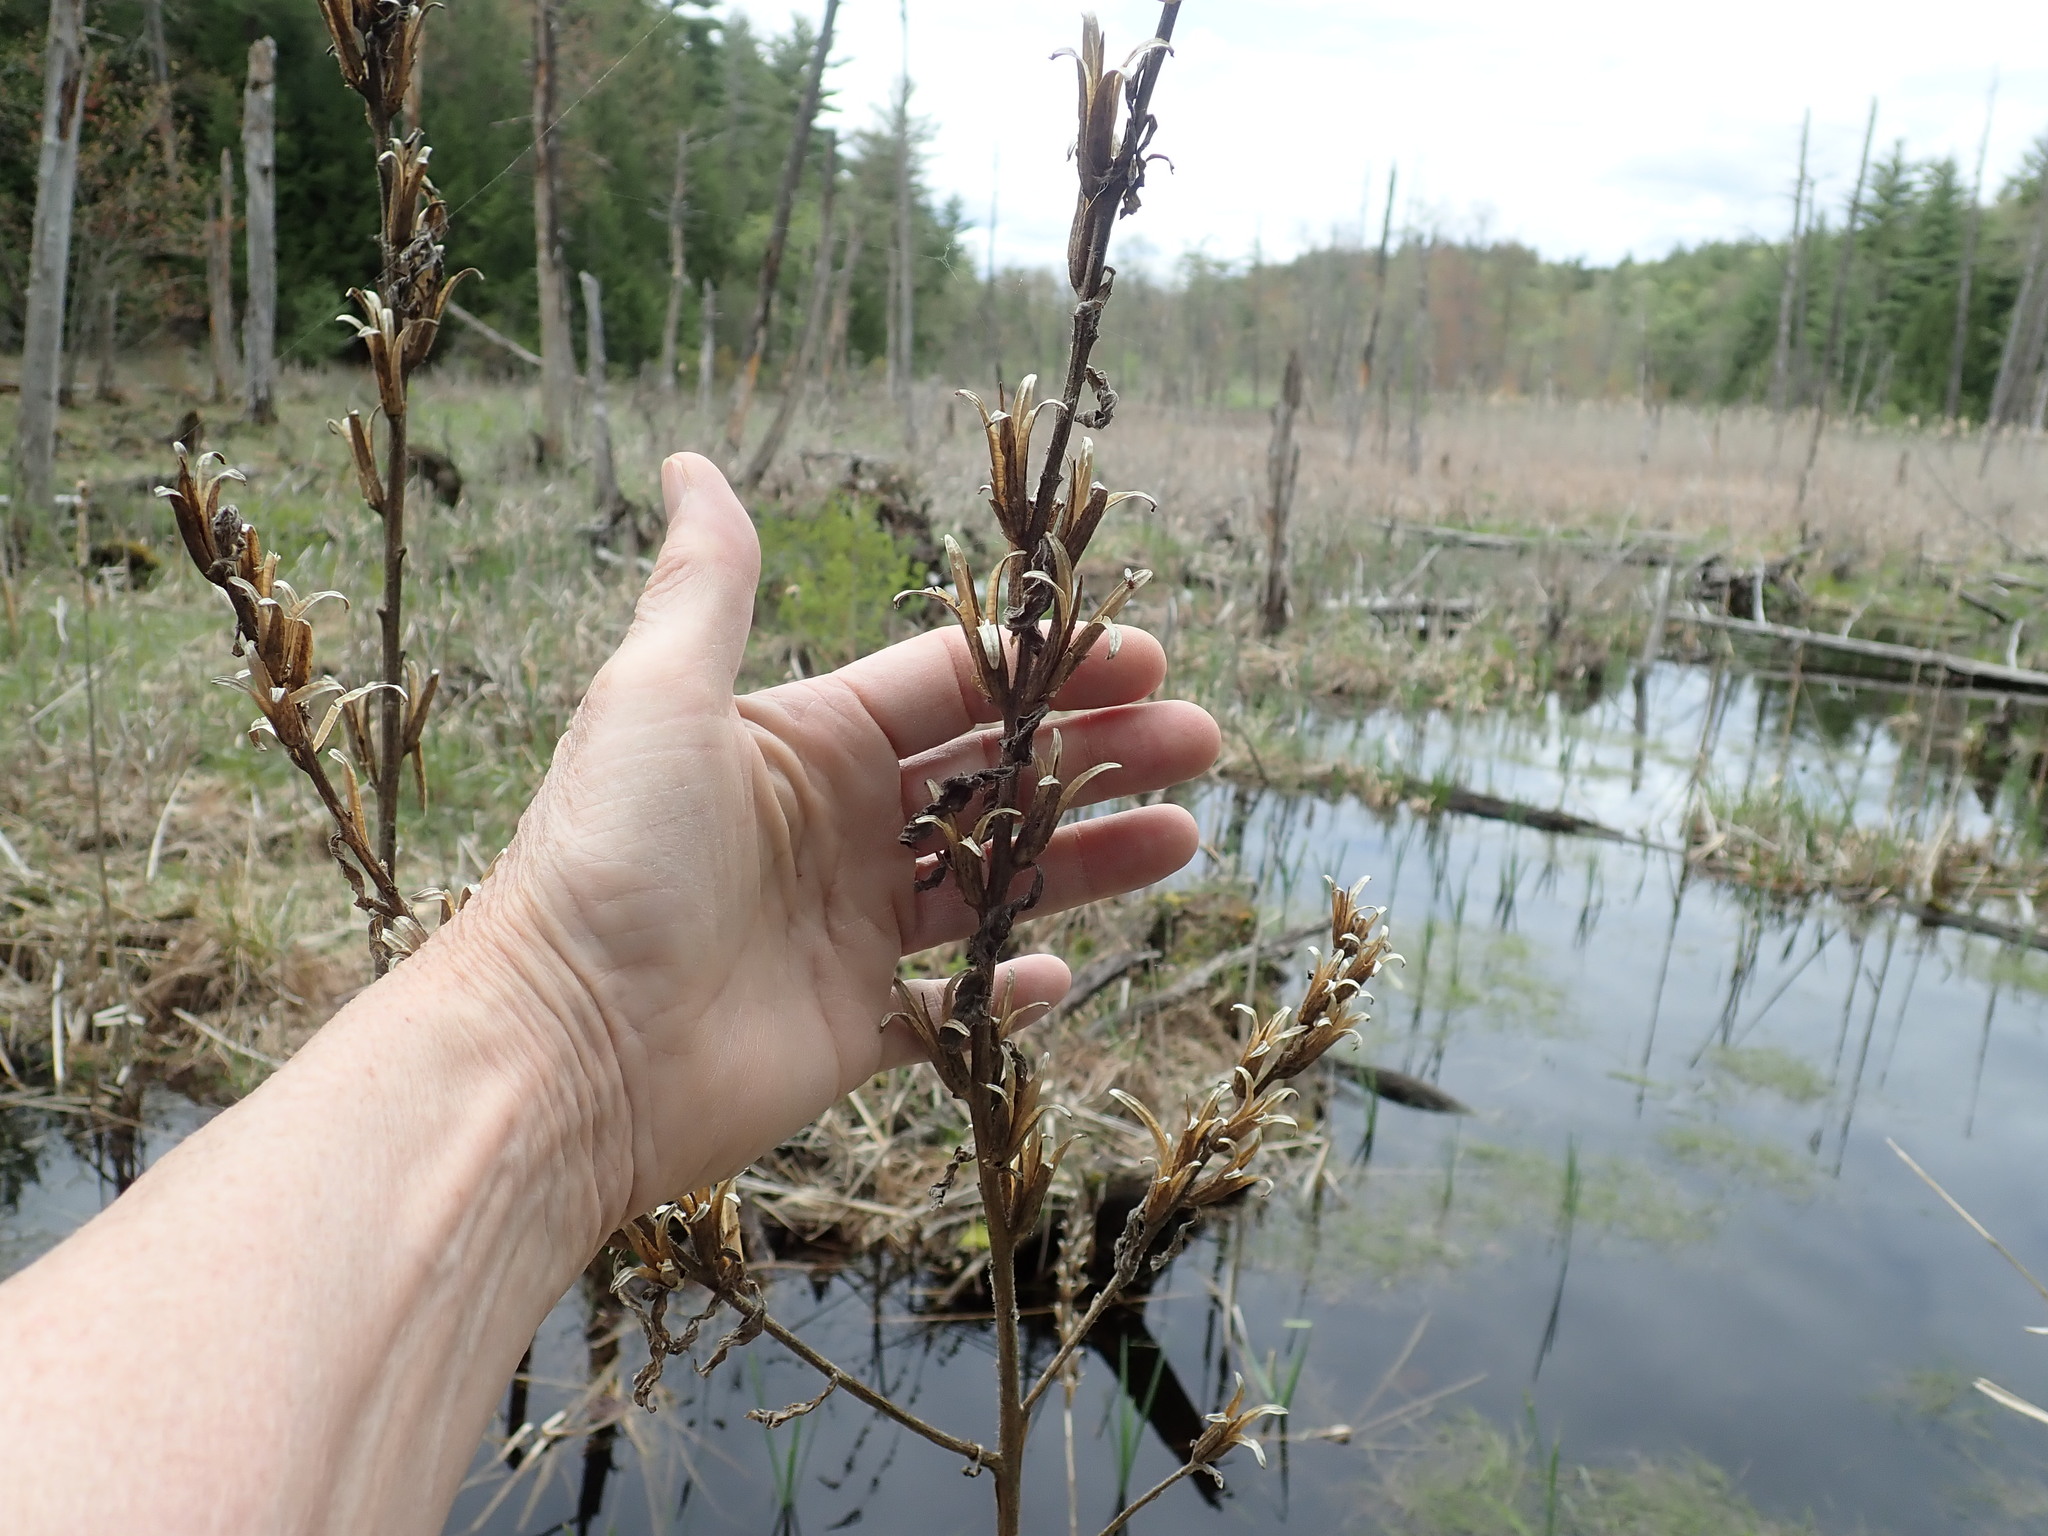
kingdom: Plantae
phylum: Tracheophyta
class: Magnoliopsida
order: Myrtales
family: Onagraceae
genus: Oenothera
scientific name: Oenothera biennis
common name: Common evening-primrose
